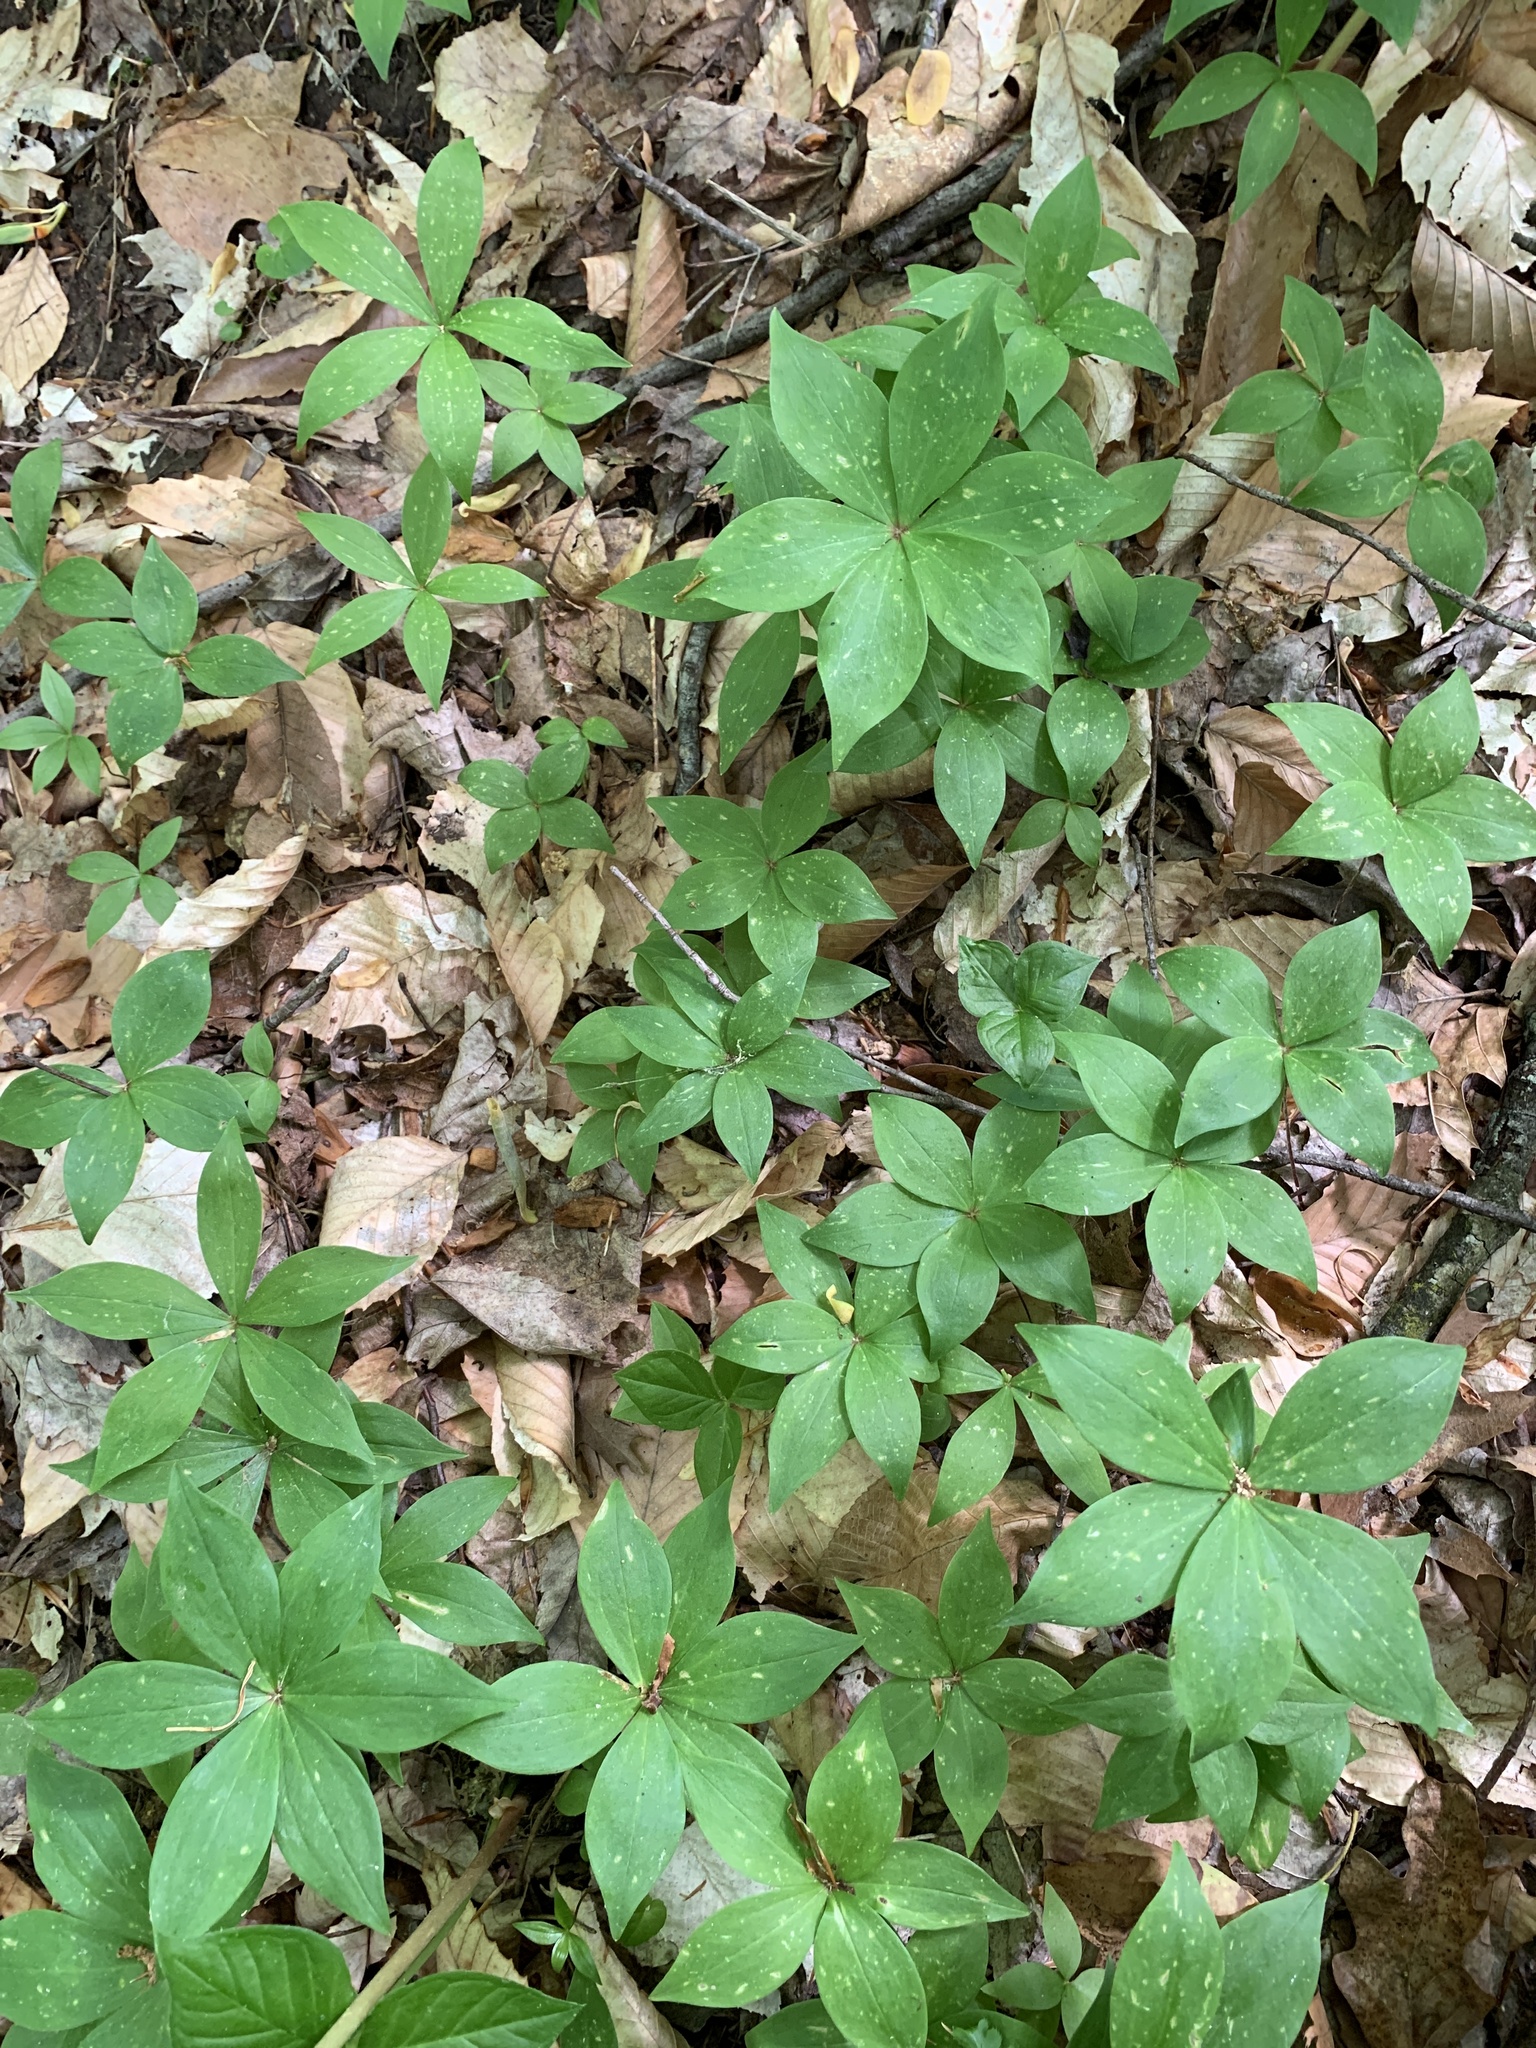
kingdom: Plantae
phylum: Tracheophyta
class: Liliopsida
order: Liliales
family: Liliaceae
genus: Medeola
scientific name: Medeola virginiana
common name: Indian cucumber-root
